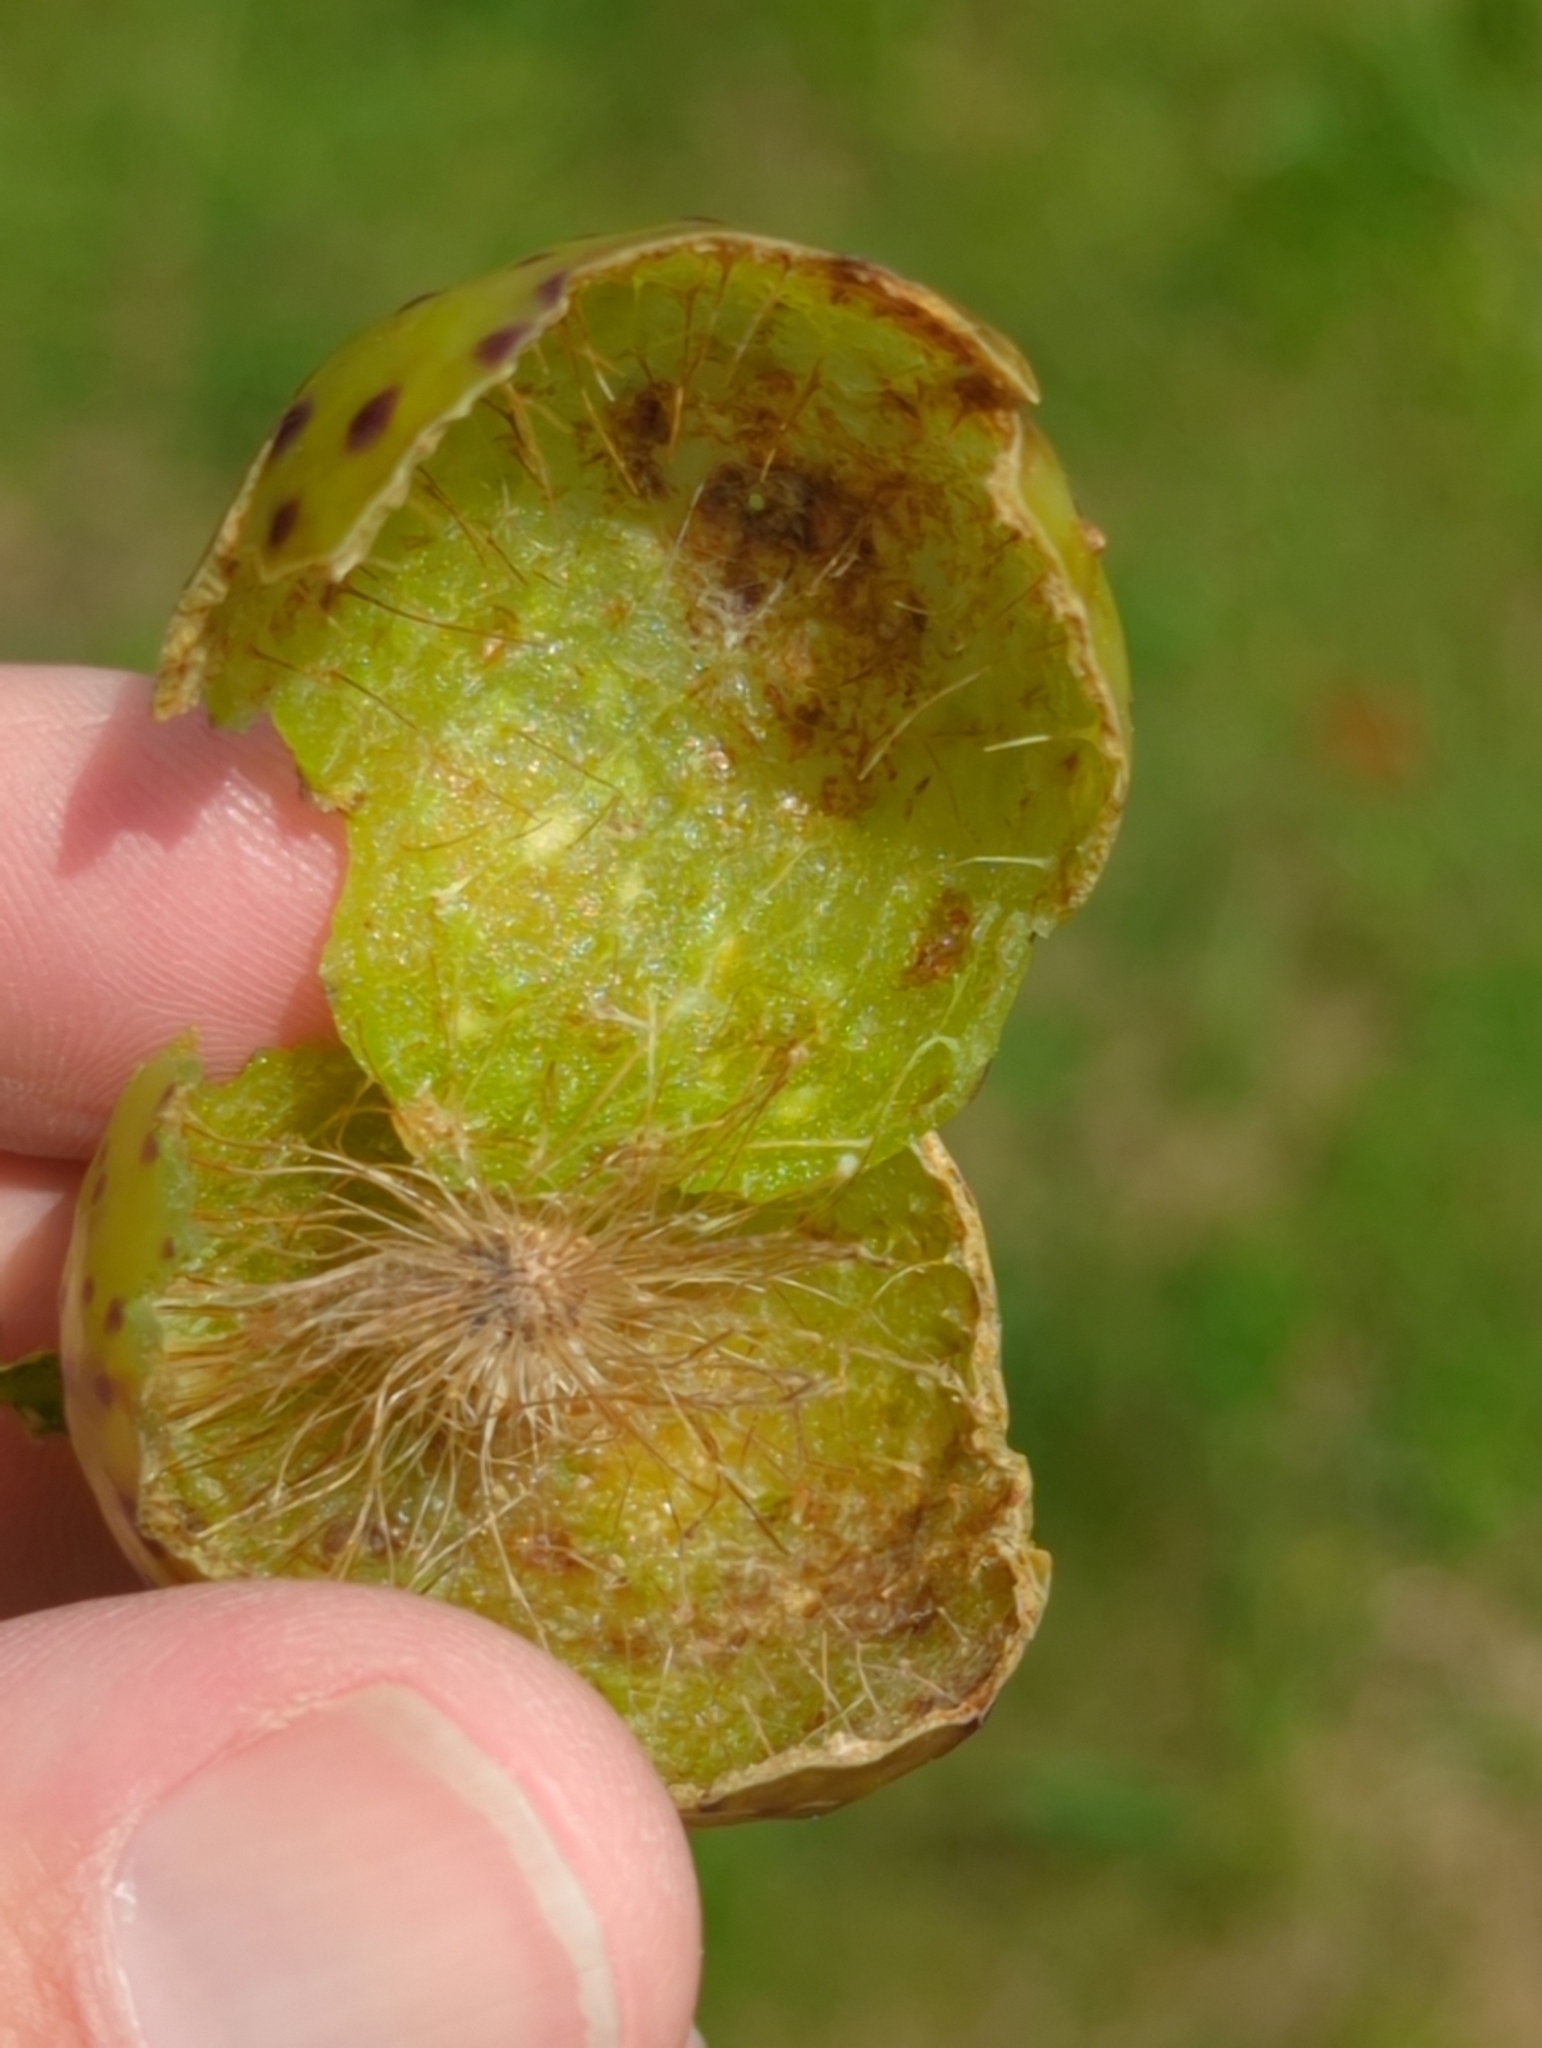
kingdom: Animalia
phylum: Arthropoda
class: Insecta
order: Hymenoptera
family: Cynipidae
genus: Amphibolips
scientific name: Amphibolips
